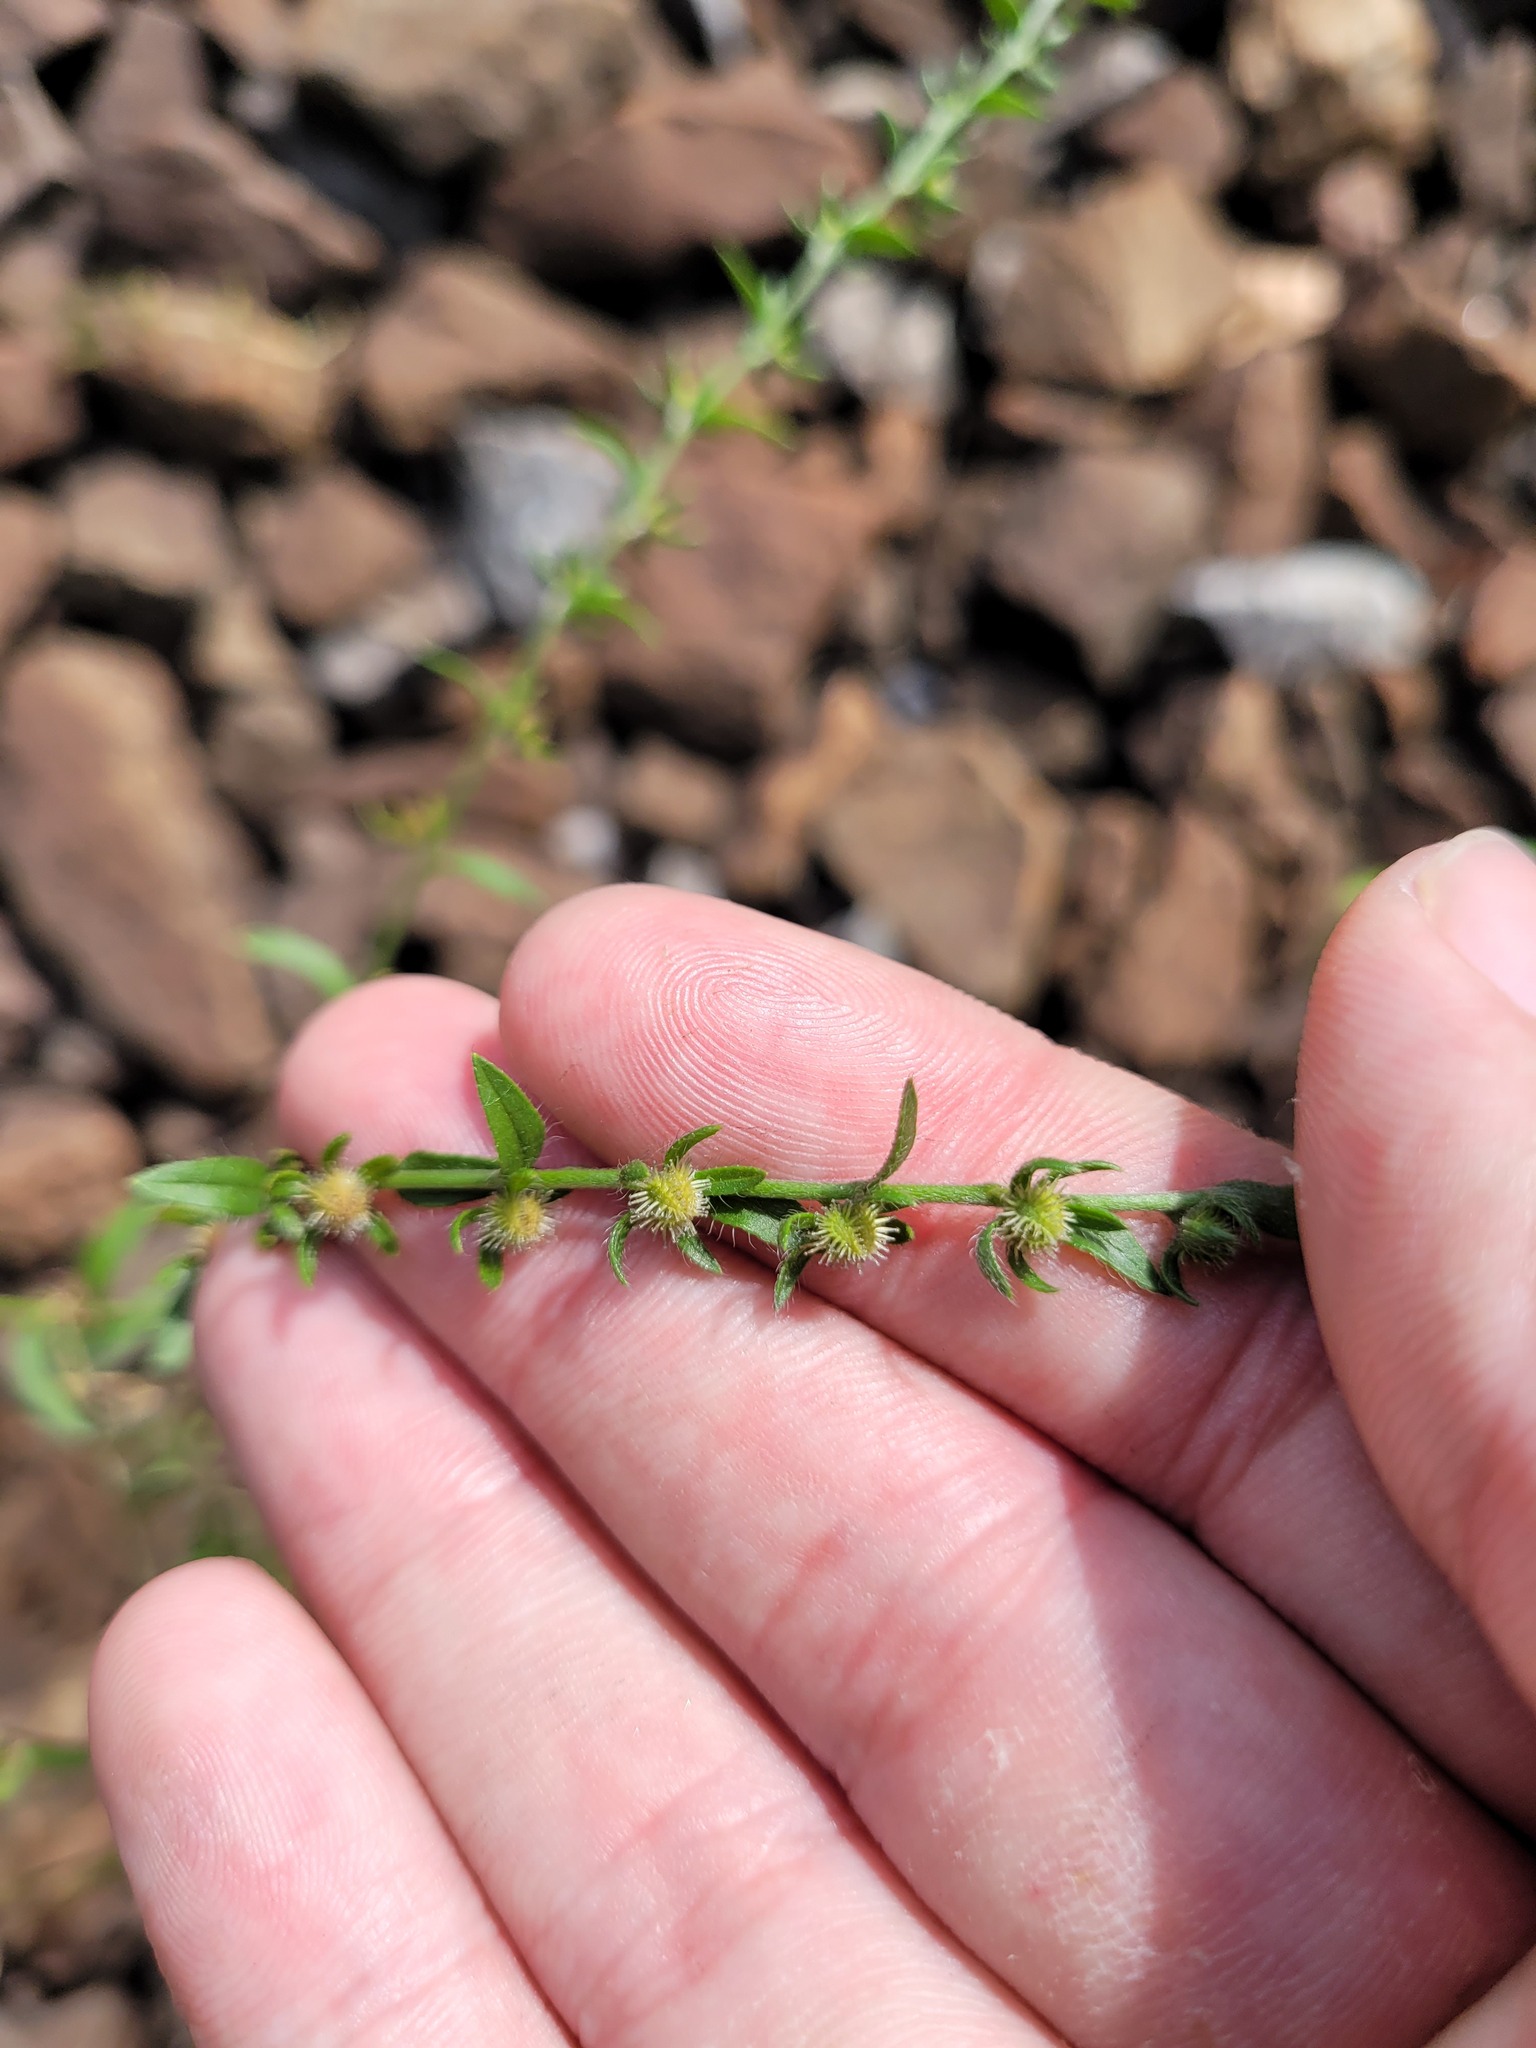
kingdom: Plantae
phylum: Tracheophyta
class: Magnoliopsida
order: Boraginales
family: Boraginaceae
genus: Lappula
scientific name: Lappula squarrosa
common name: European stickseed
